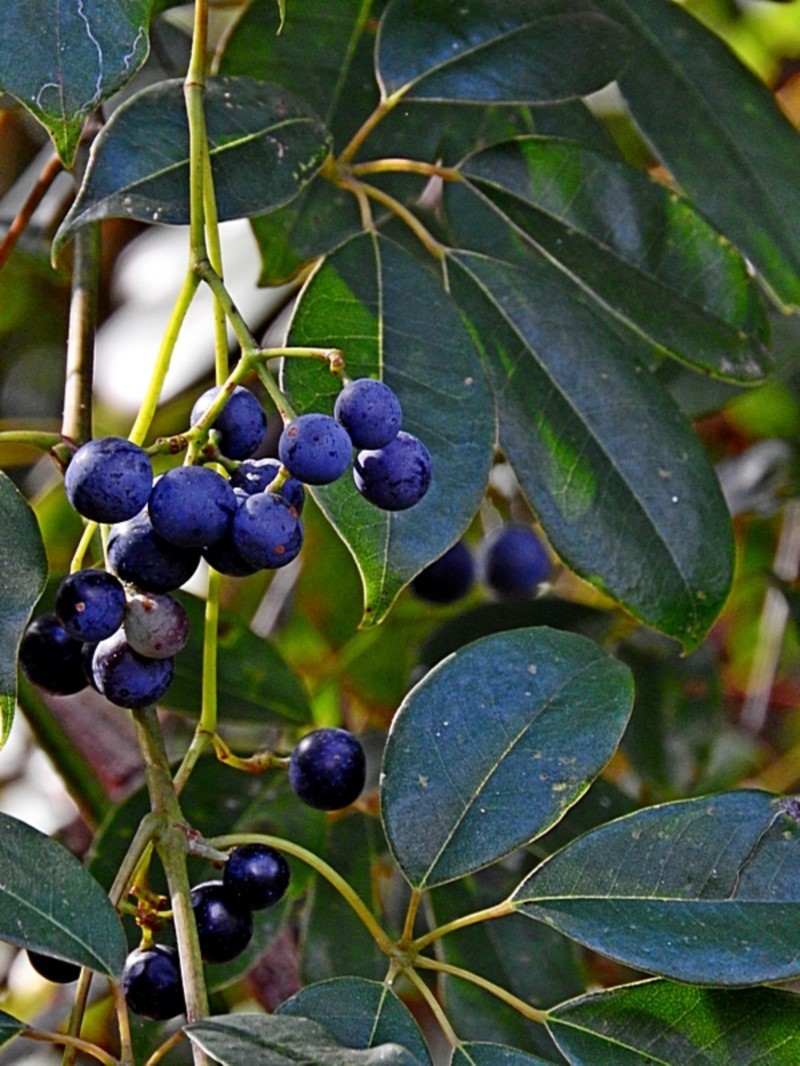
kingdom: Plantae
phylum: Tracheophyta
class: Magnoliopsida
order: Vitales
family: Vitaceae
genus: Nothocissus
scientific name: Nothocissus hypoglauca
